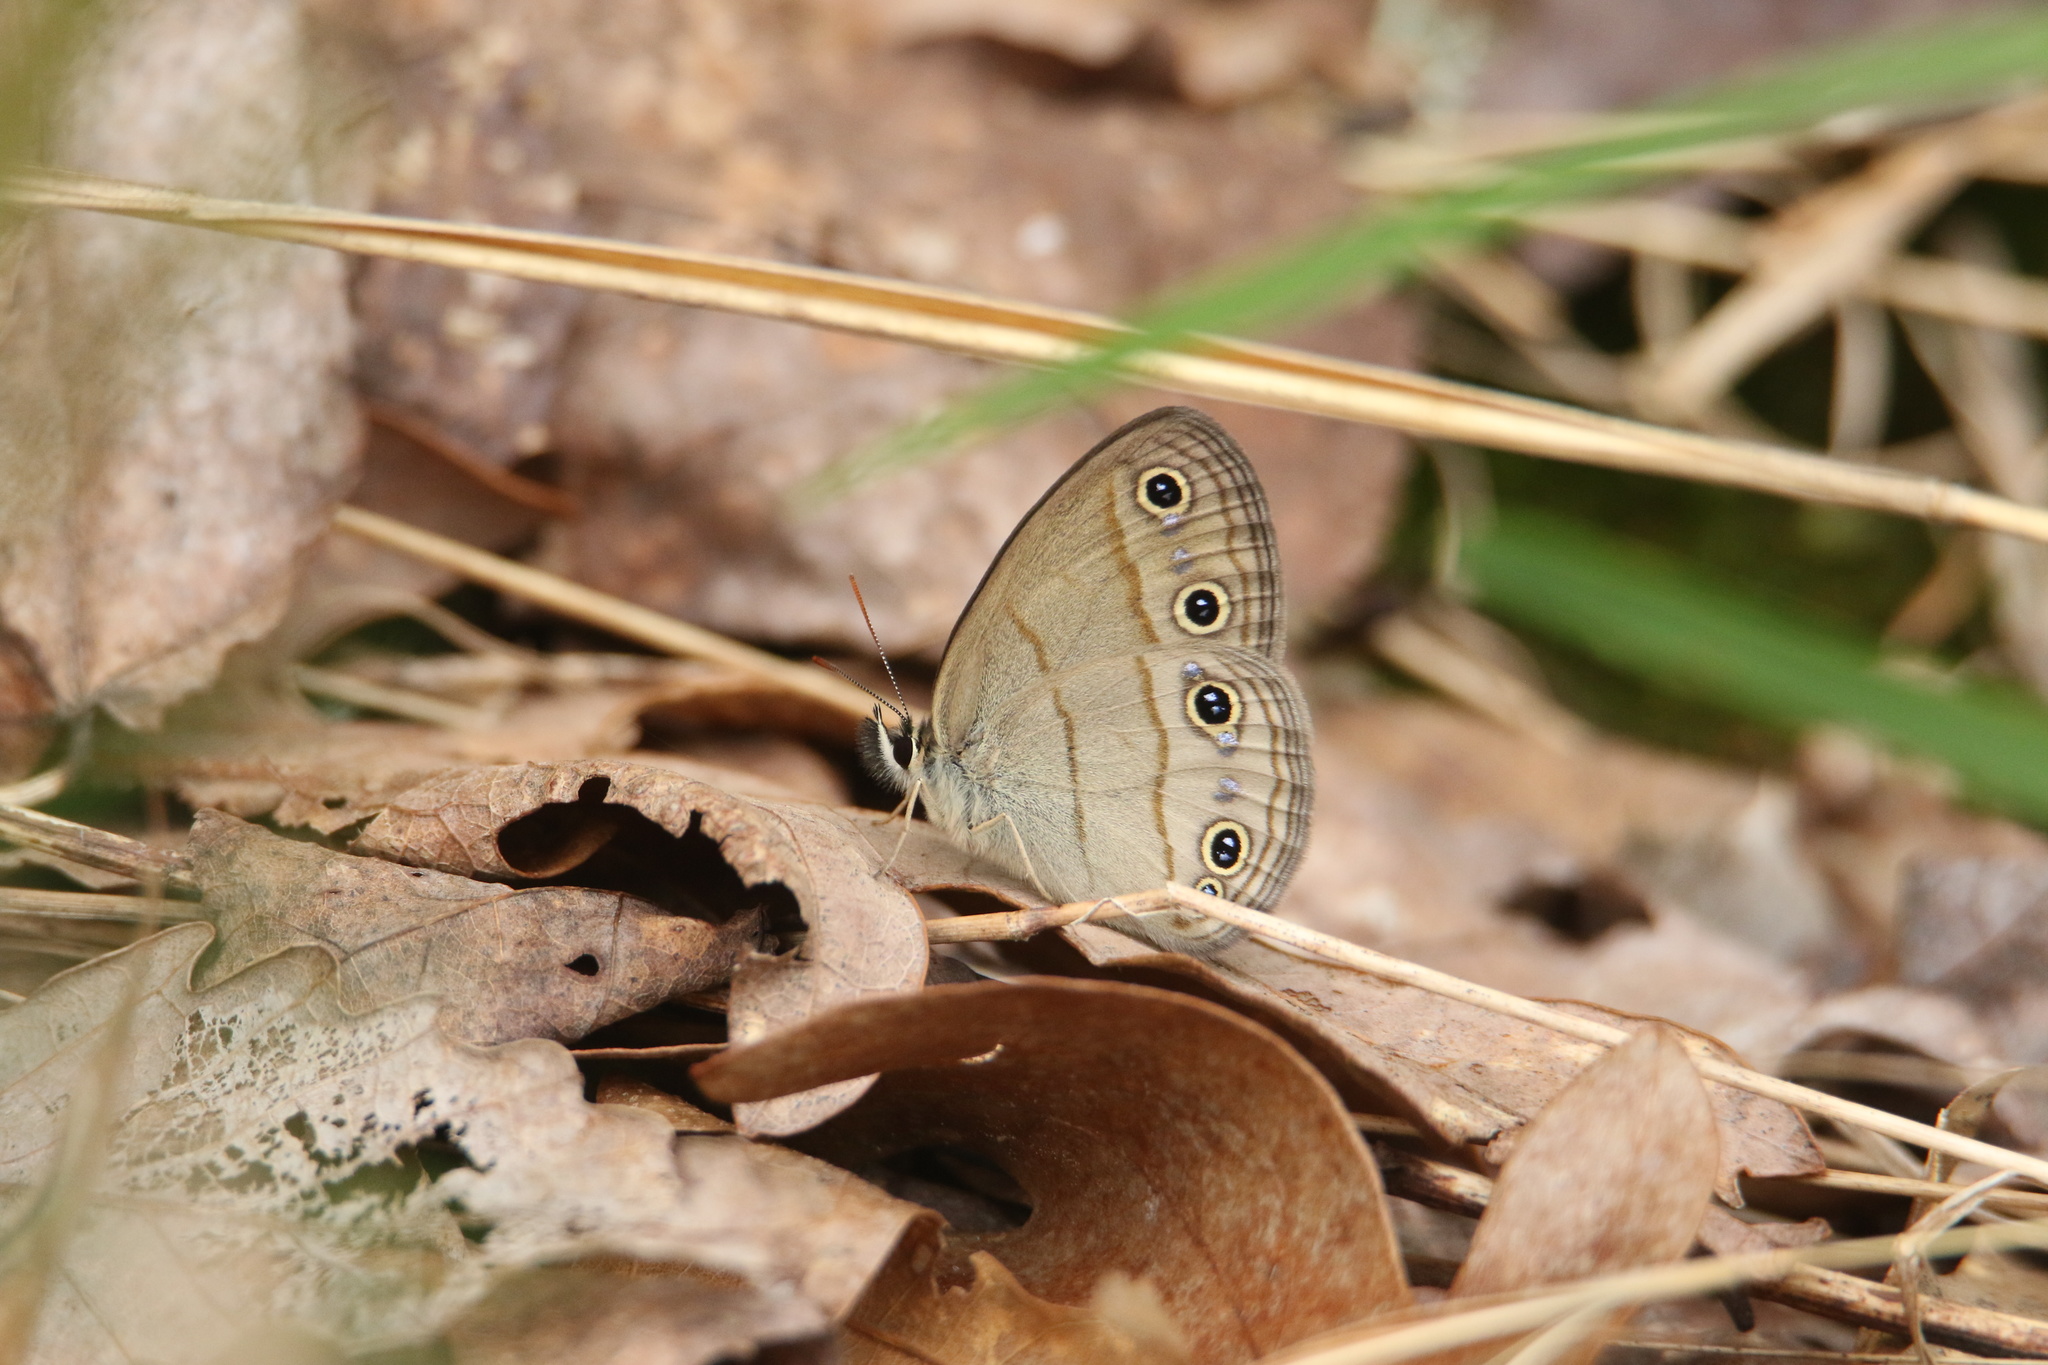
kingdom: Animalia
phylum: Arthropoda
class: Insecta
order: Lepidoptera
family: Nymphalidae
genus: Euptychia
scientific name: Euptychia cymela
